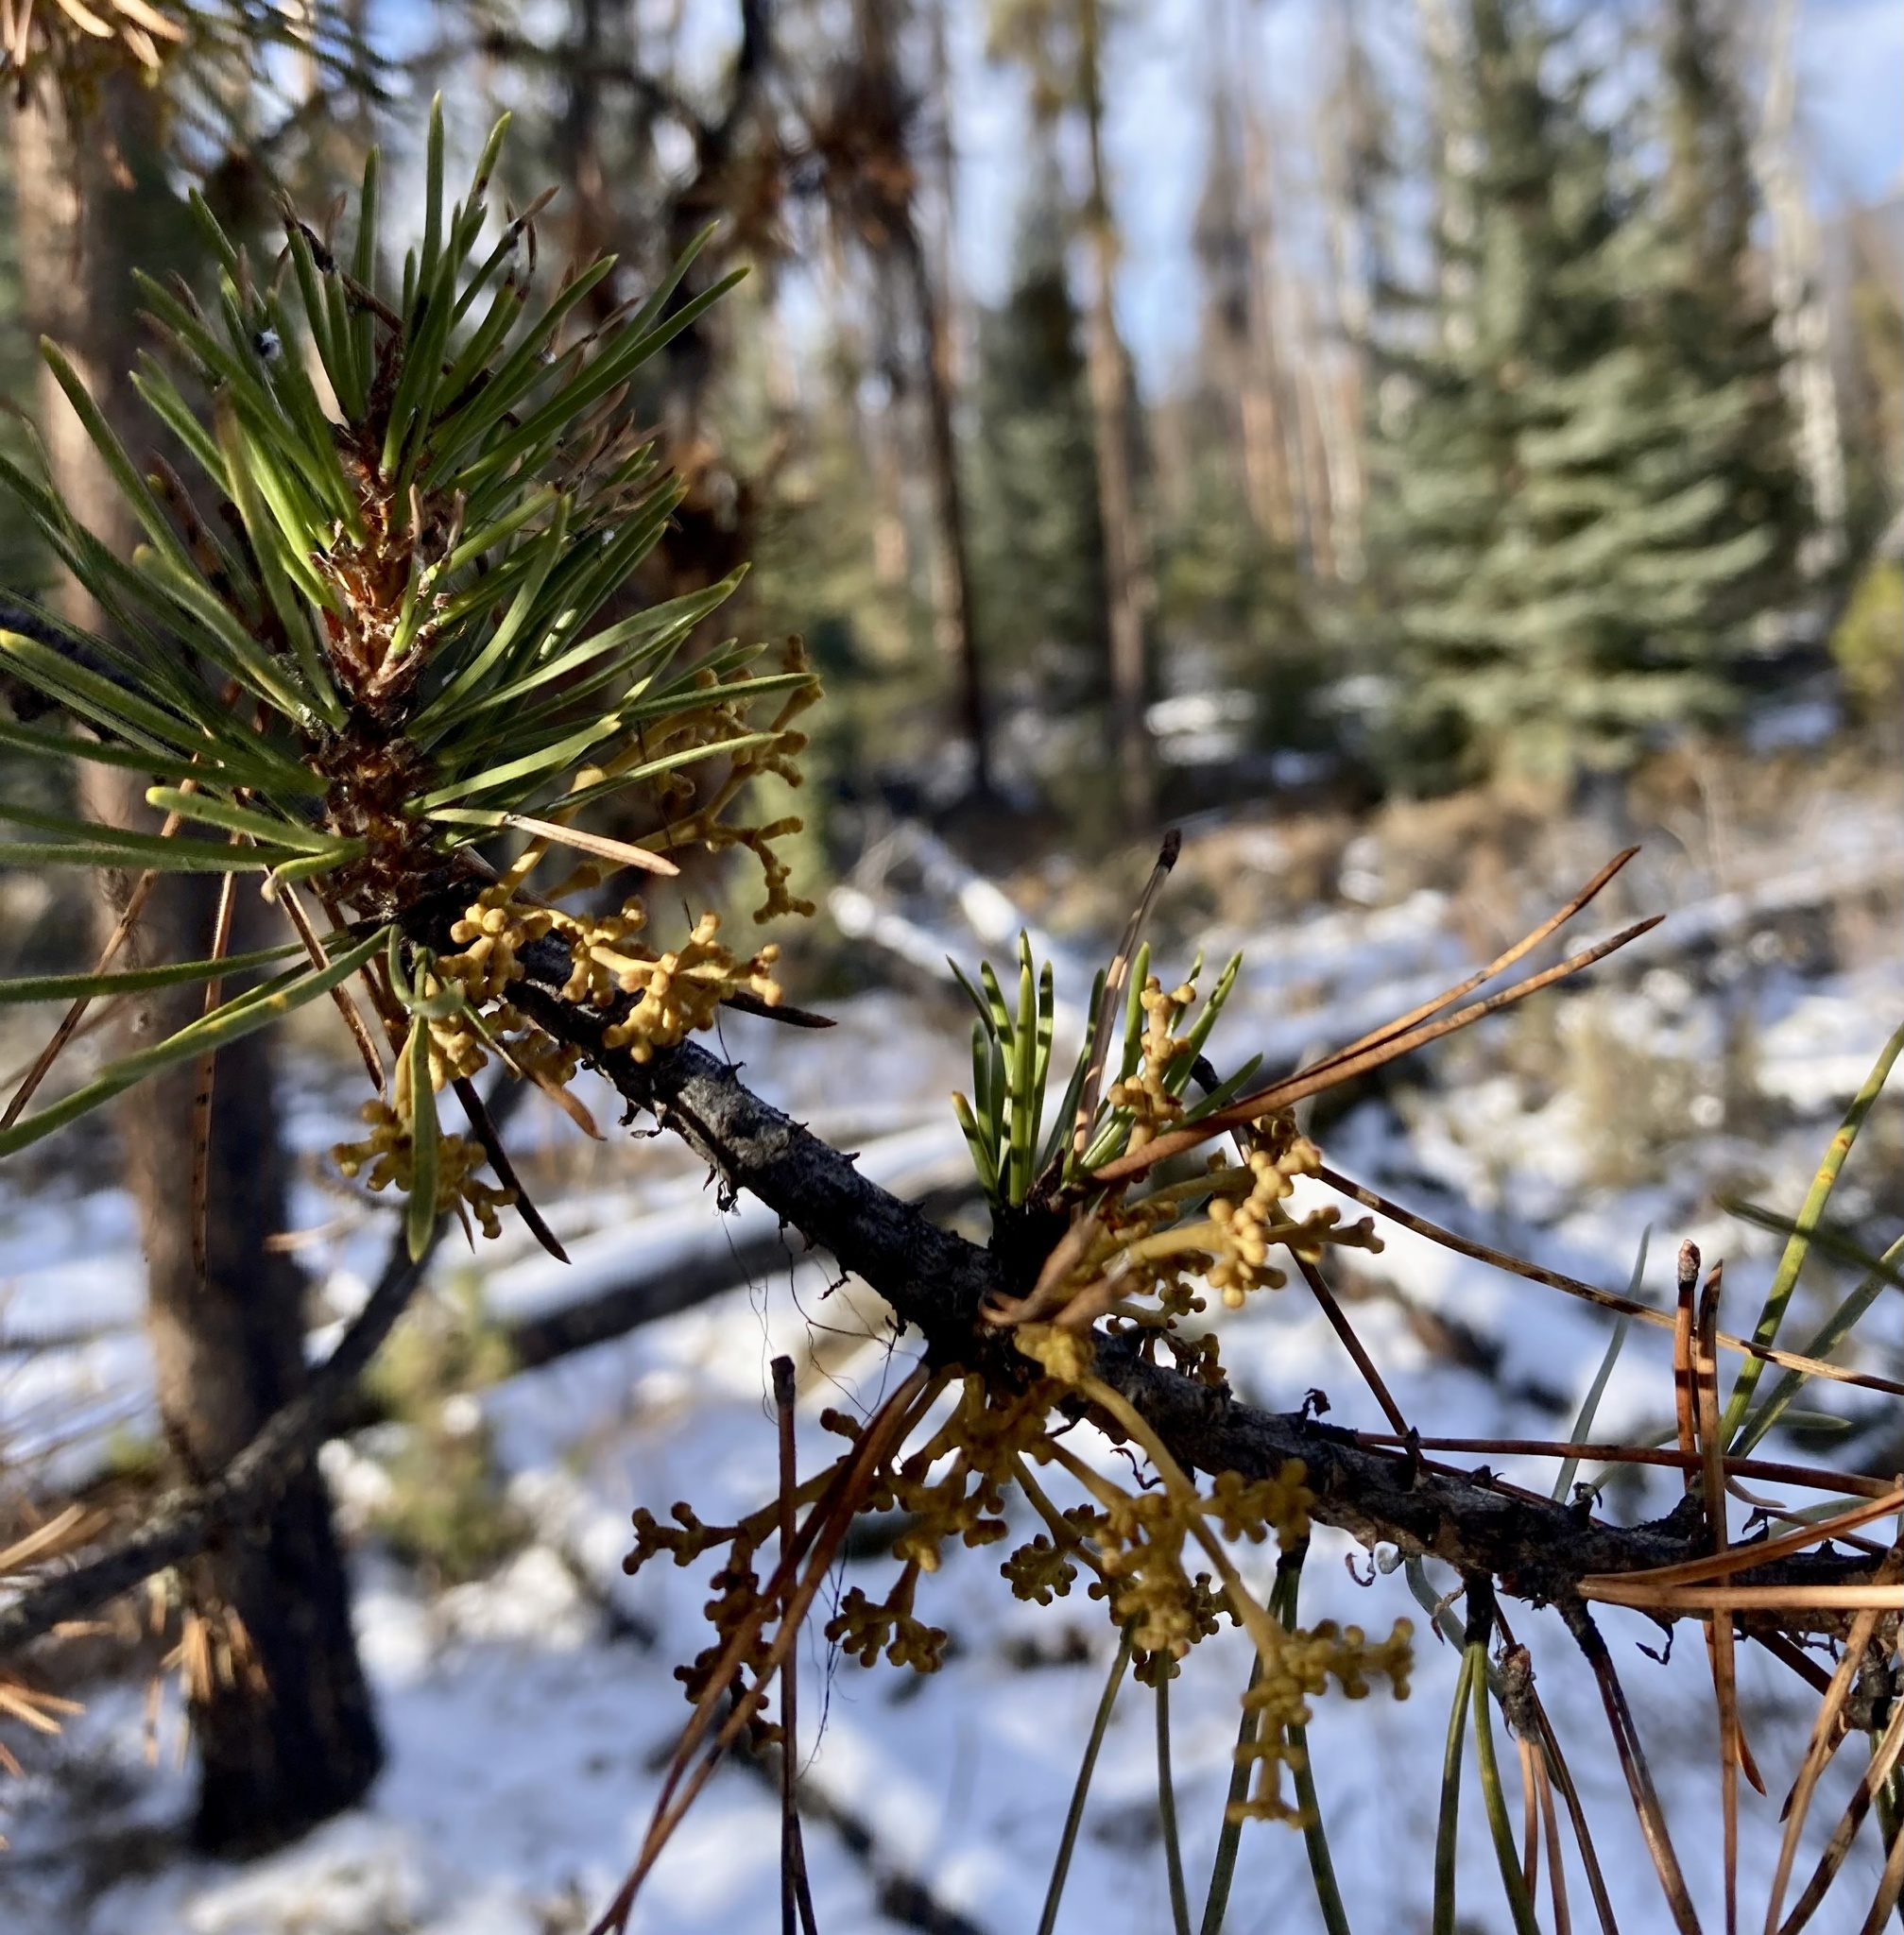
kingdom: Plantae
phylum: Tracheophyta
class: Magnoliopsida
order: Santalales
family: Viscaceae
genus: Arceuthobium
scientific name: Arceuthobium americanum
